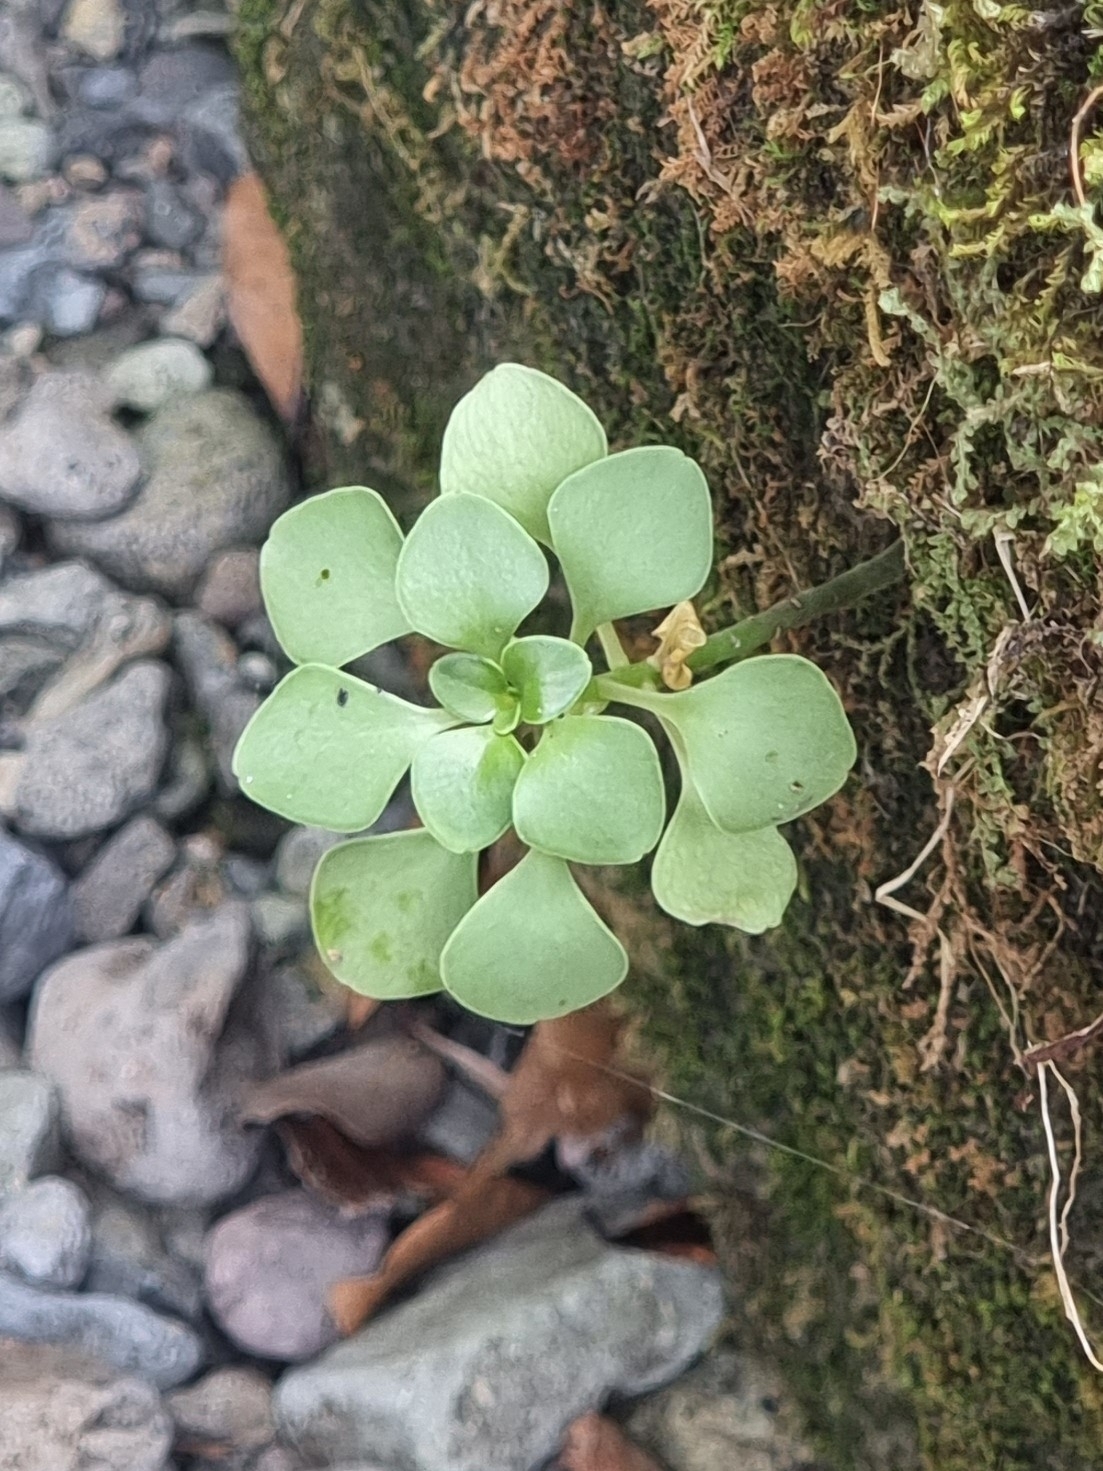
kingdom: Plantae
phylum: Tracheophyta
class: Magnoliopsida
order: Saxifragales
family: Crassulaceae
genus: Aichryson
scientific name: Aichryson divaricatum
